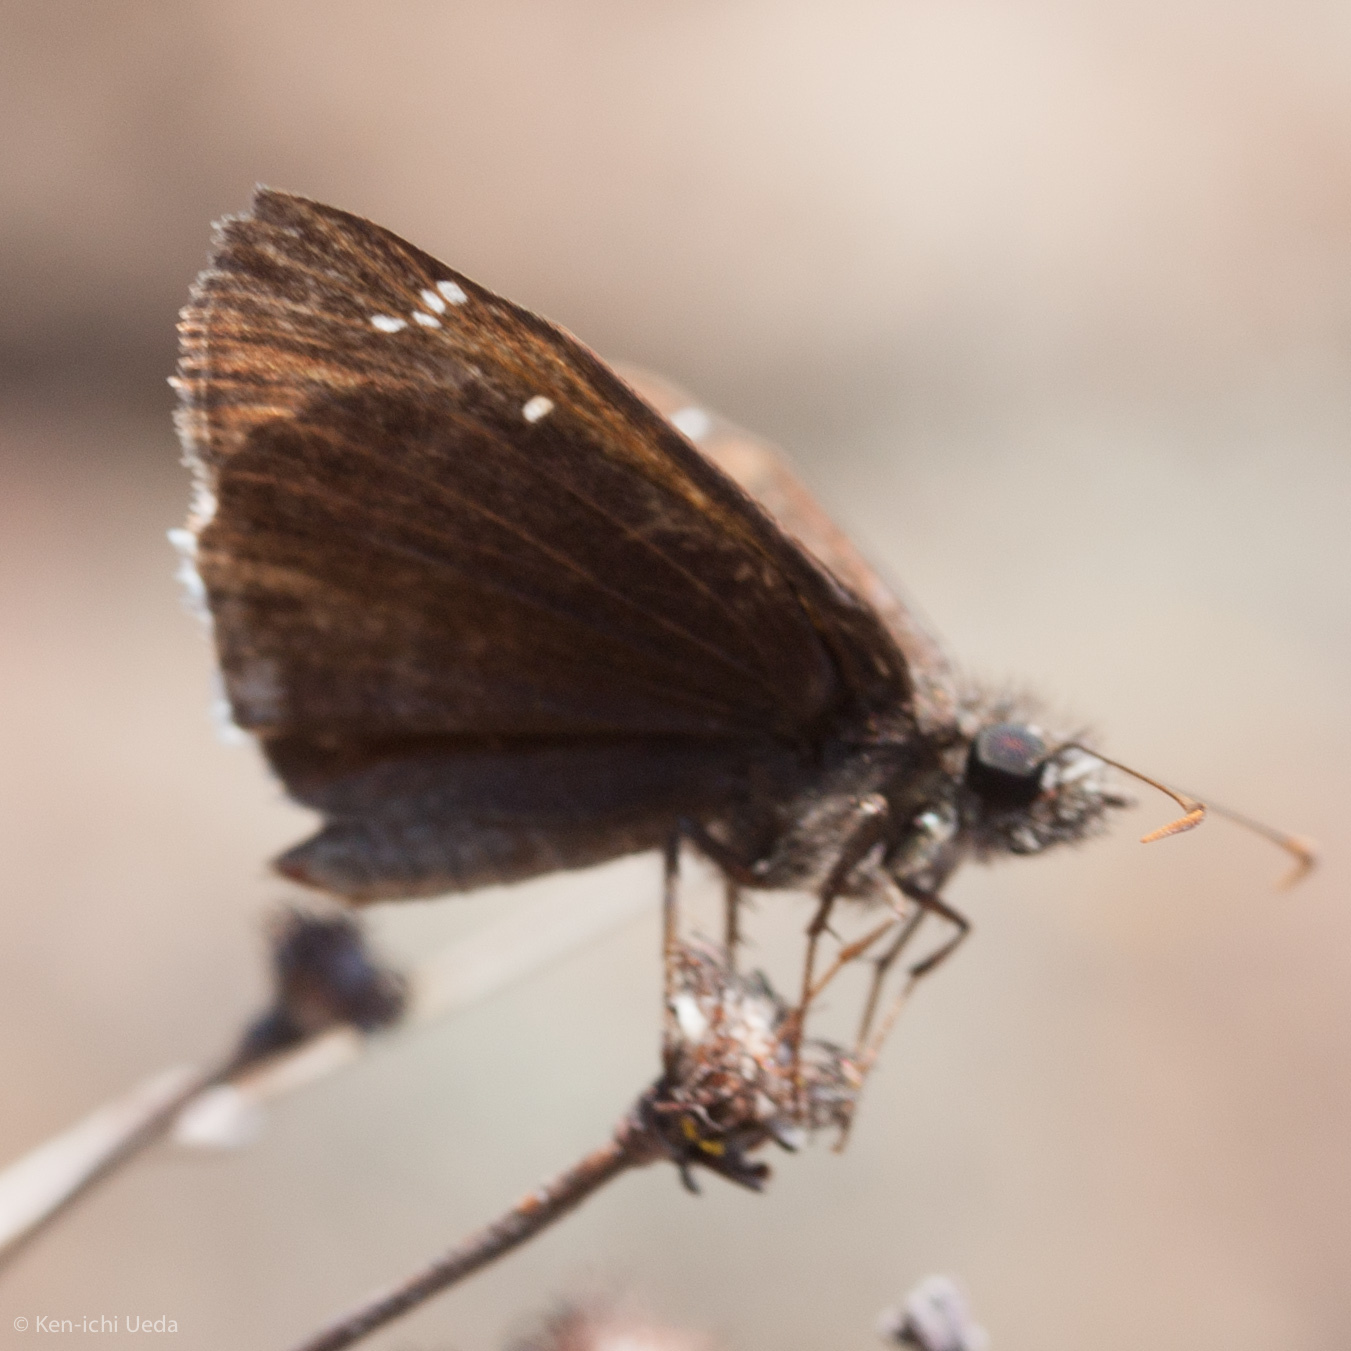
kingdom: Animalia
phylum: Arthropoda
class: Insecta
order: Lepidoptera
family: Hesperiidae
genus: Erynnis
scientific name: Erynnis tristis
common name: Mournful duskywing
